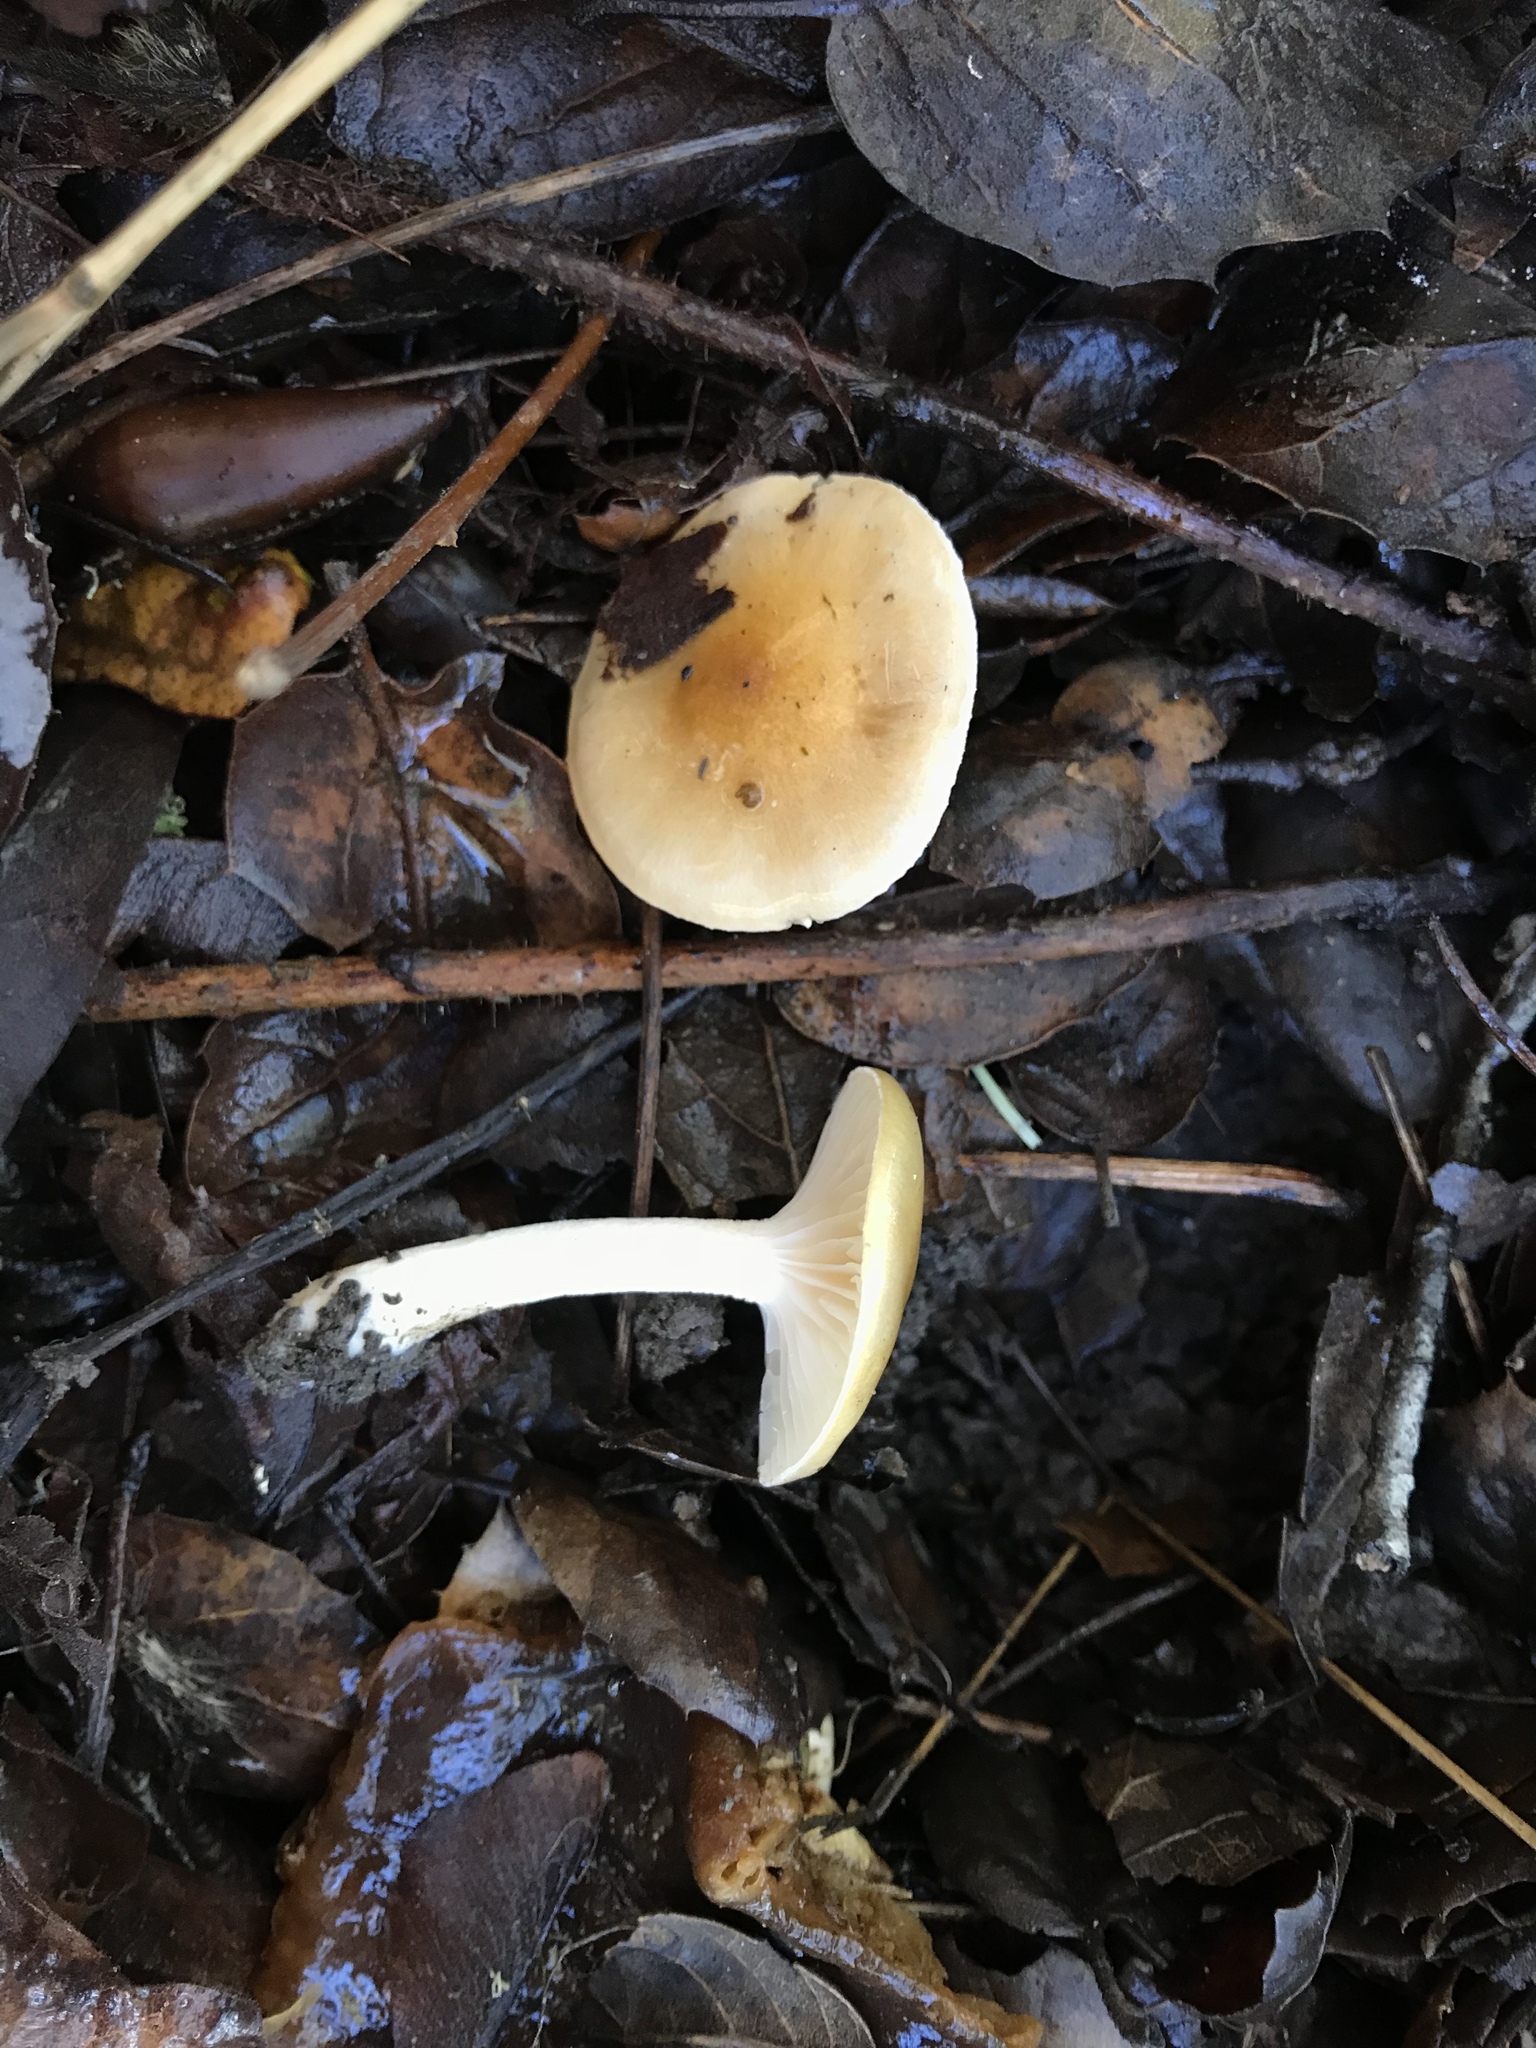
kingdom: Fungi
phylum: Basidiomycota
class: Agaricomycetes
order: Agaricales
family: Hygrophoraceae
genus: Hygrophorus
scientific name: Hygrophorus roseobrunneus
